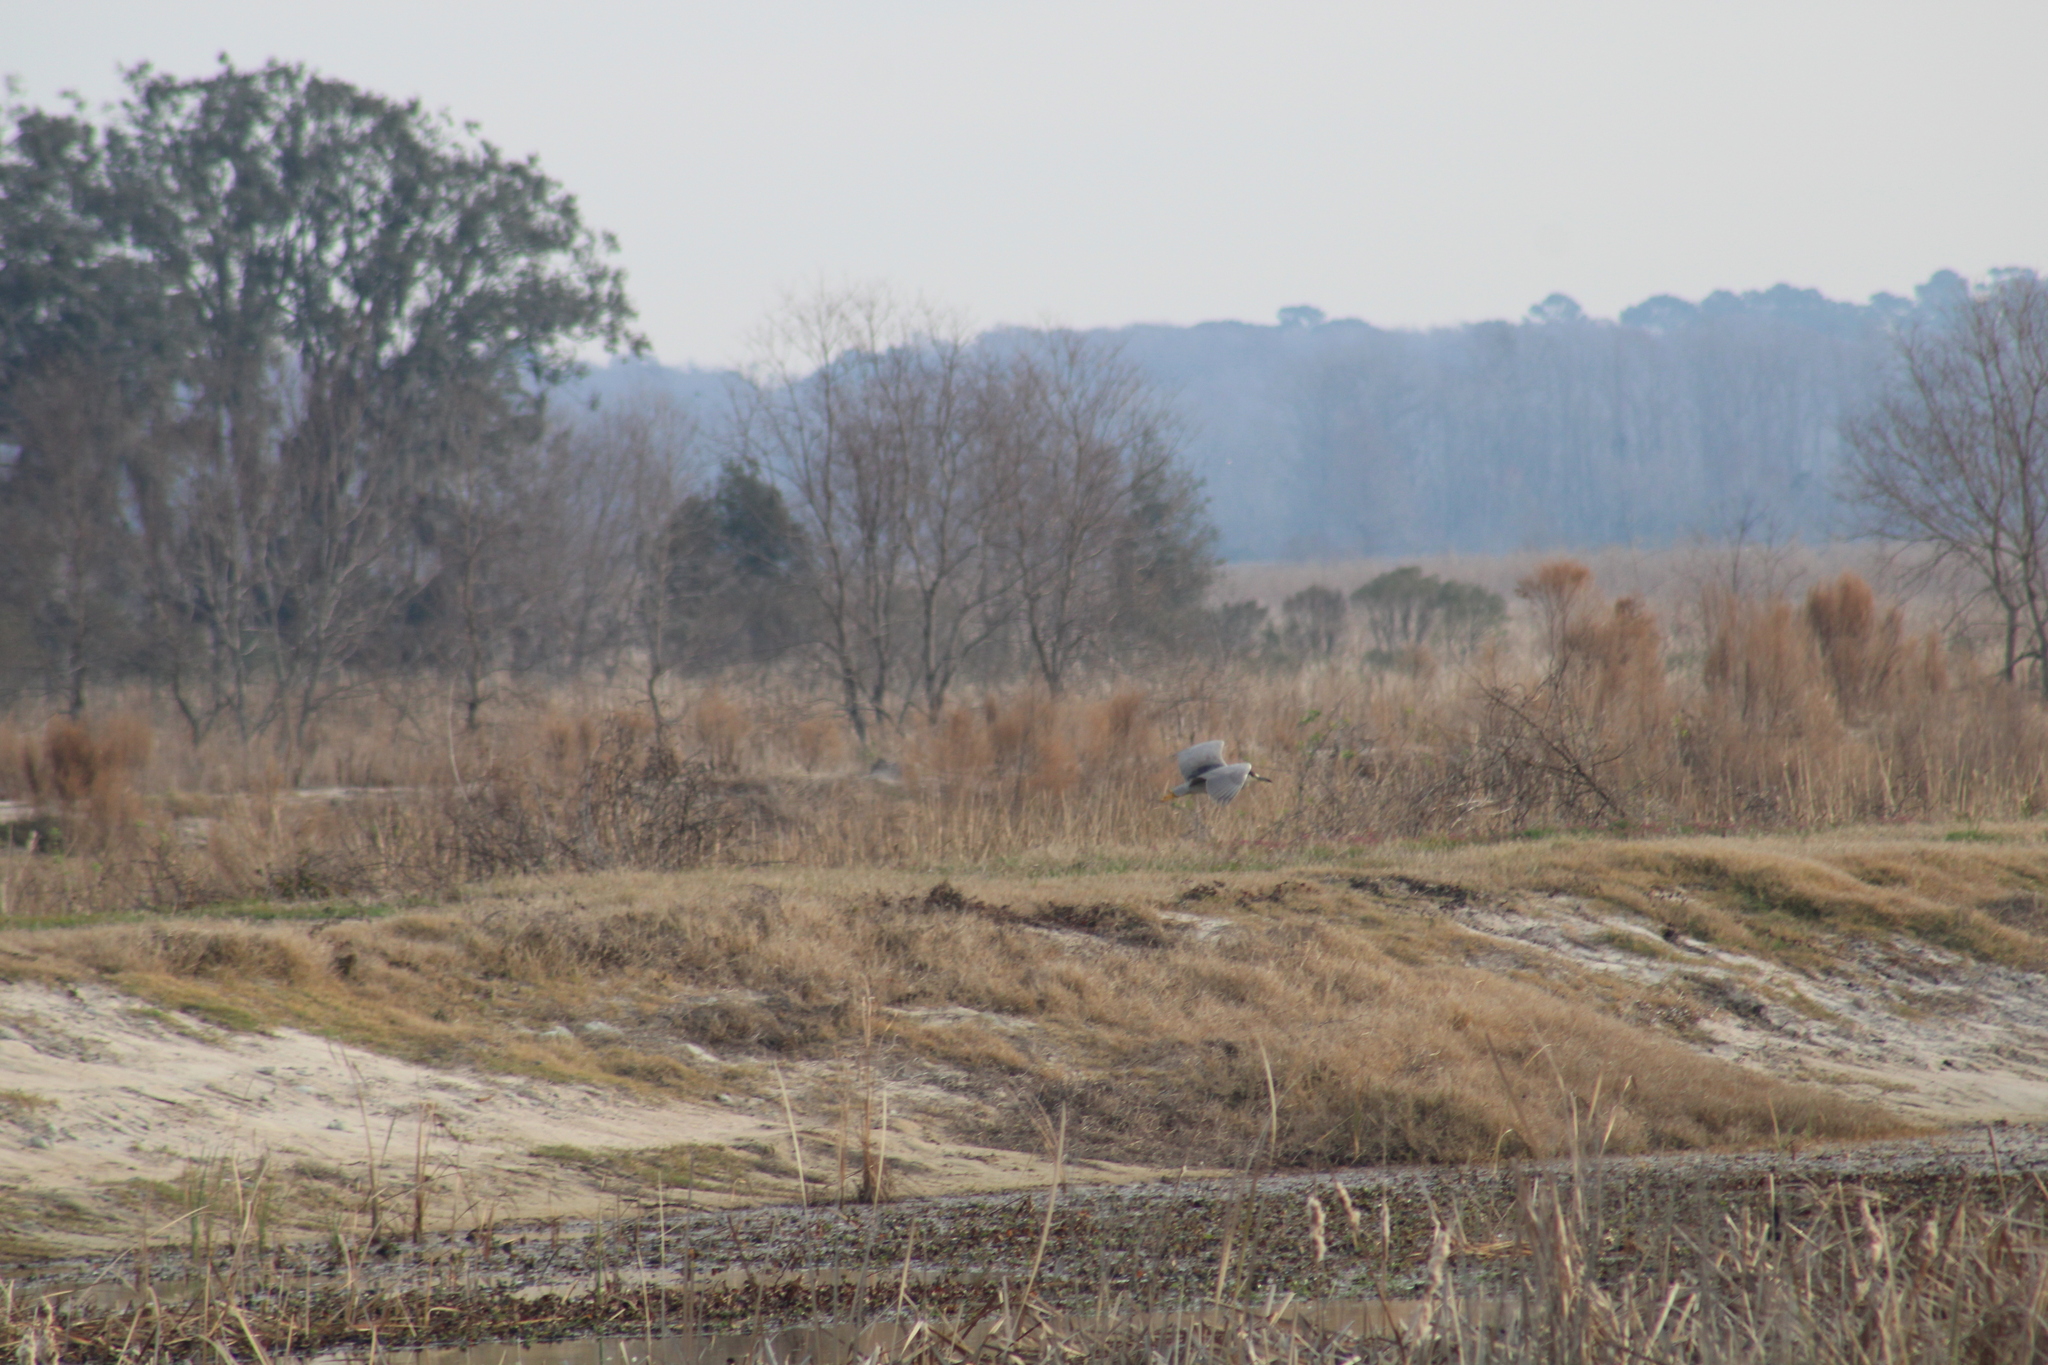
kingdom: Animalia
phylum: Chordata
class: Aves
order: Pelecaniformes
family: Ardeidae
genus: Nycticorax
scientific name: Nycticorax nycticorax
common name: Black-crowned night heron
